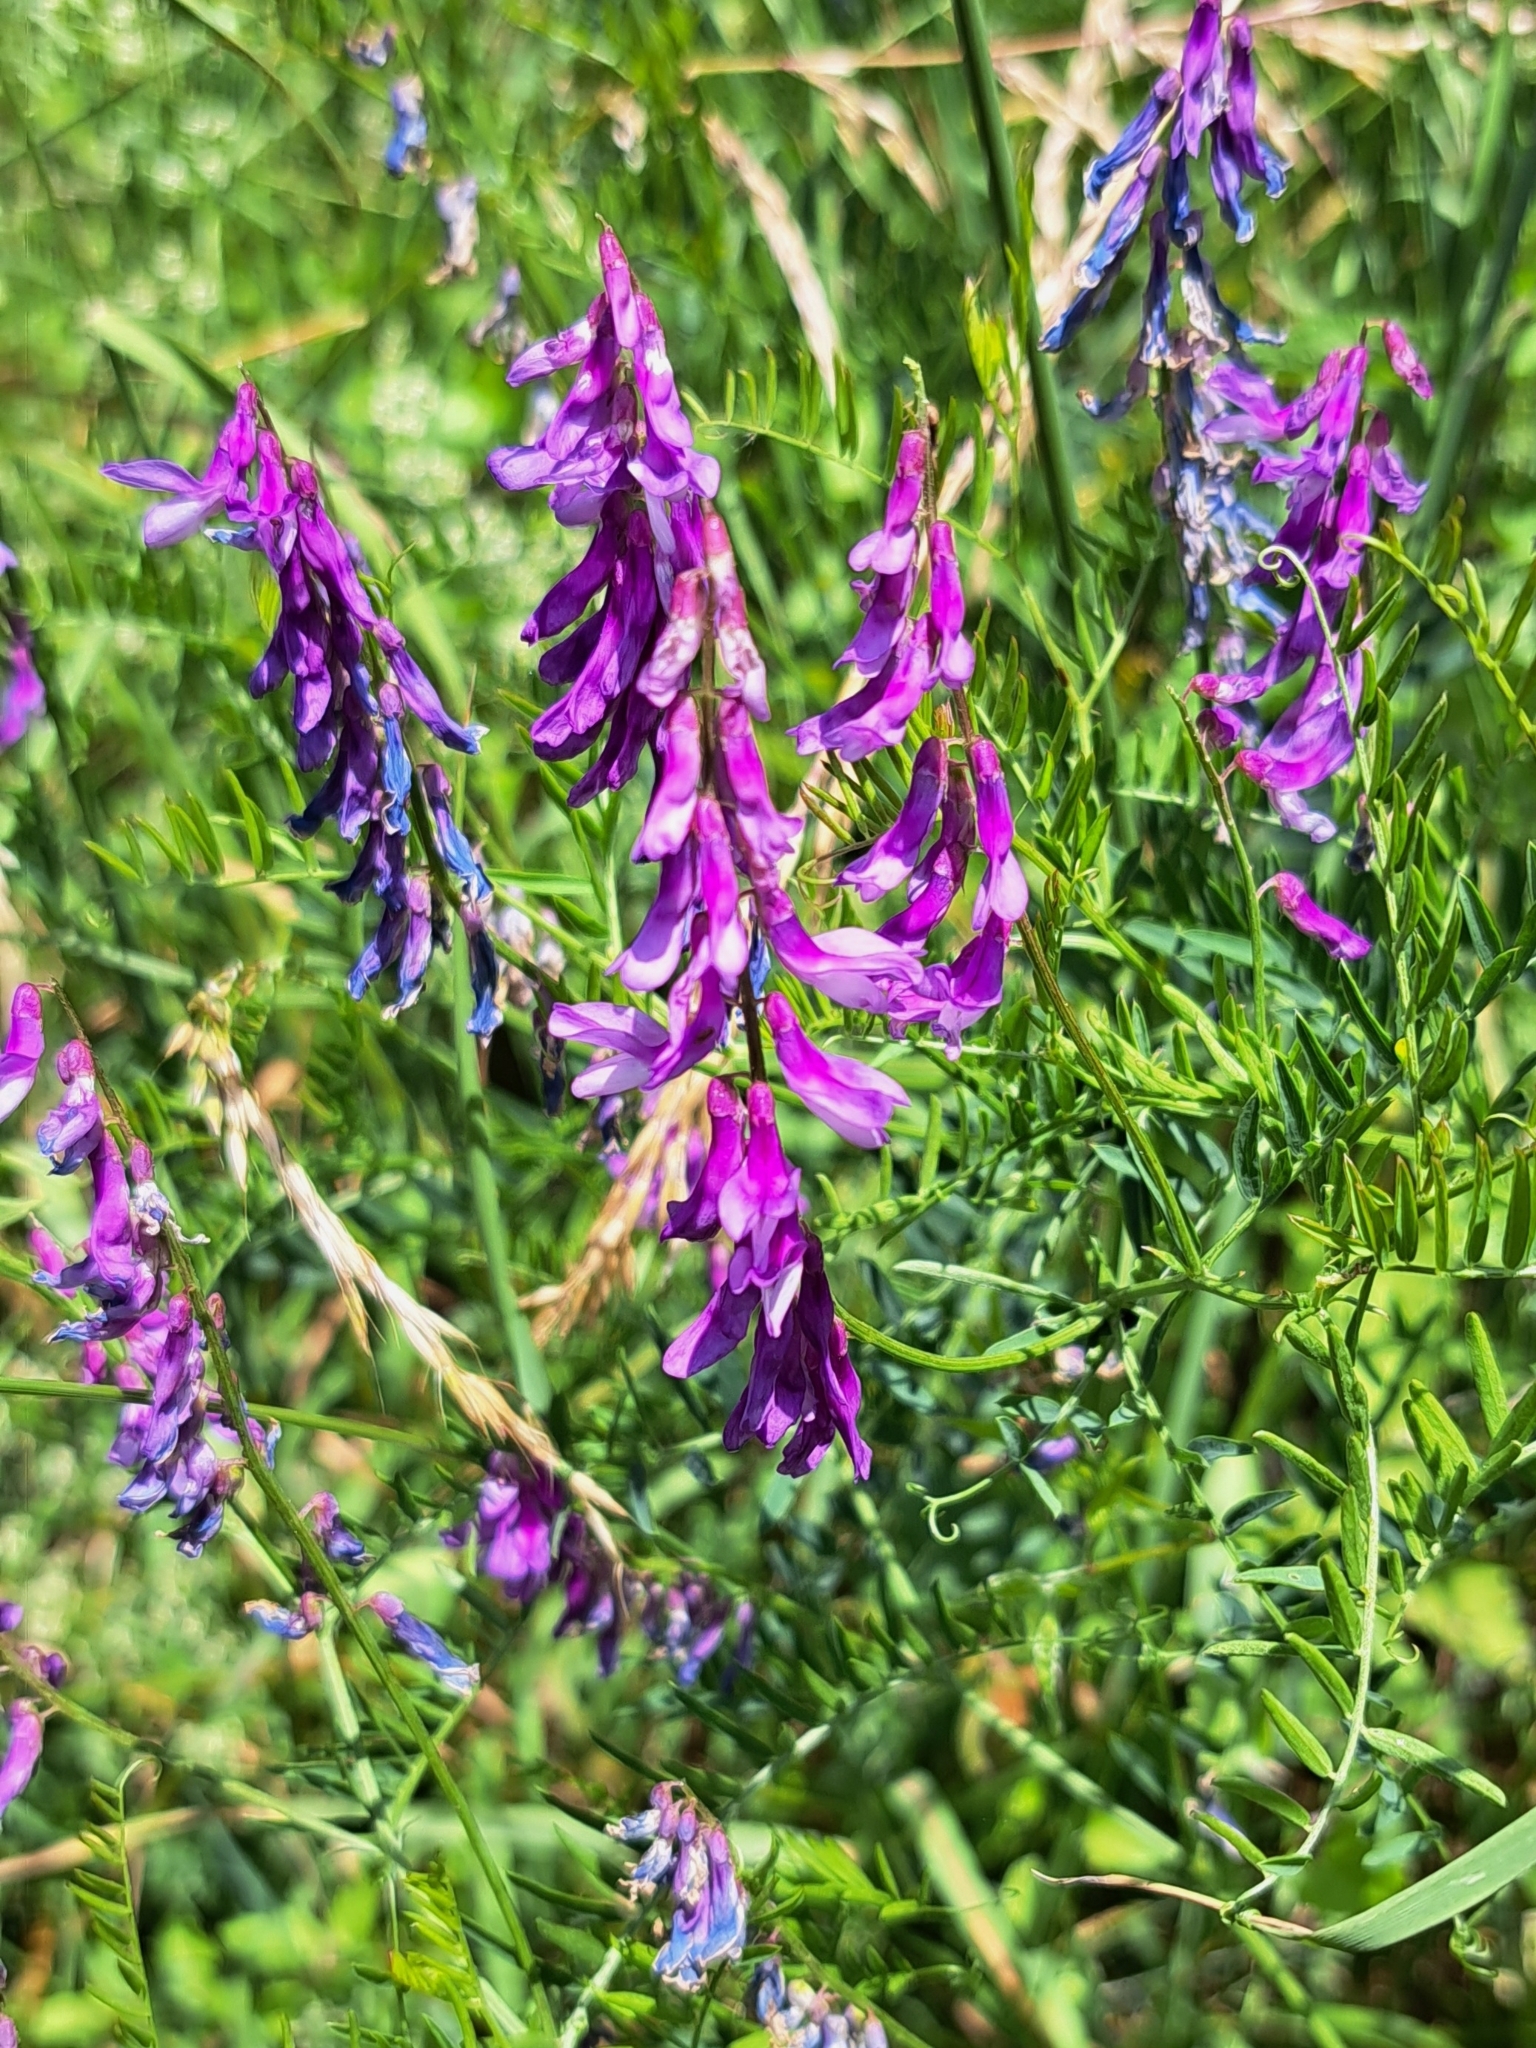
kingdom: Plantae
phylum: Tracheophyta
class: Magnoliopsida
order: Fabales
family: Fabaceae
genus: Vicia
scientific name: Vicia cracca
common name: Bird vetch
